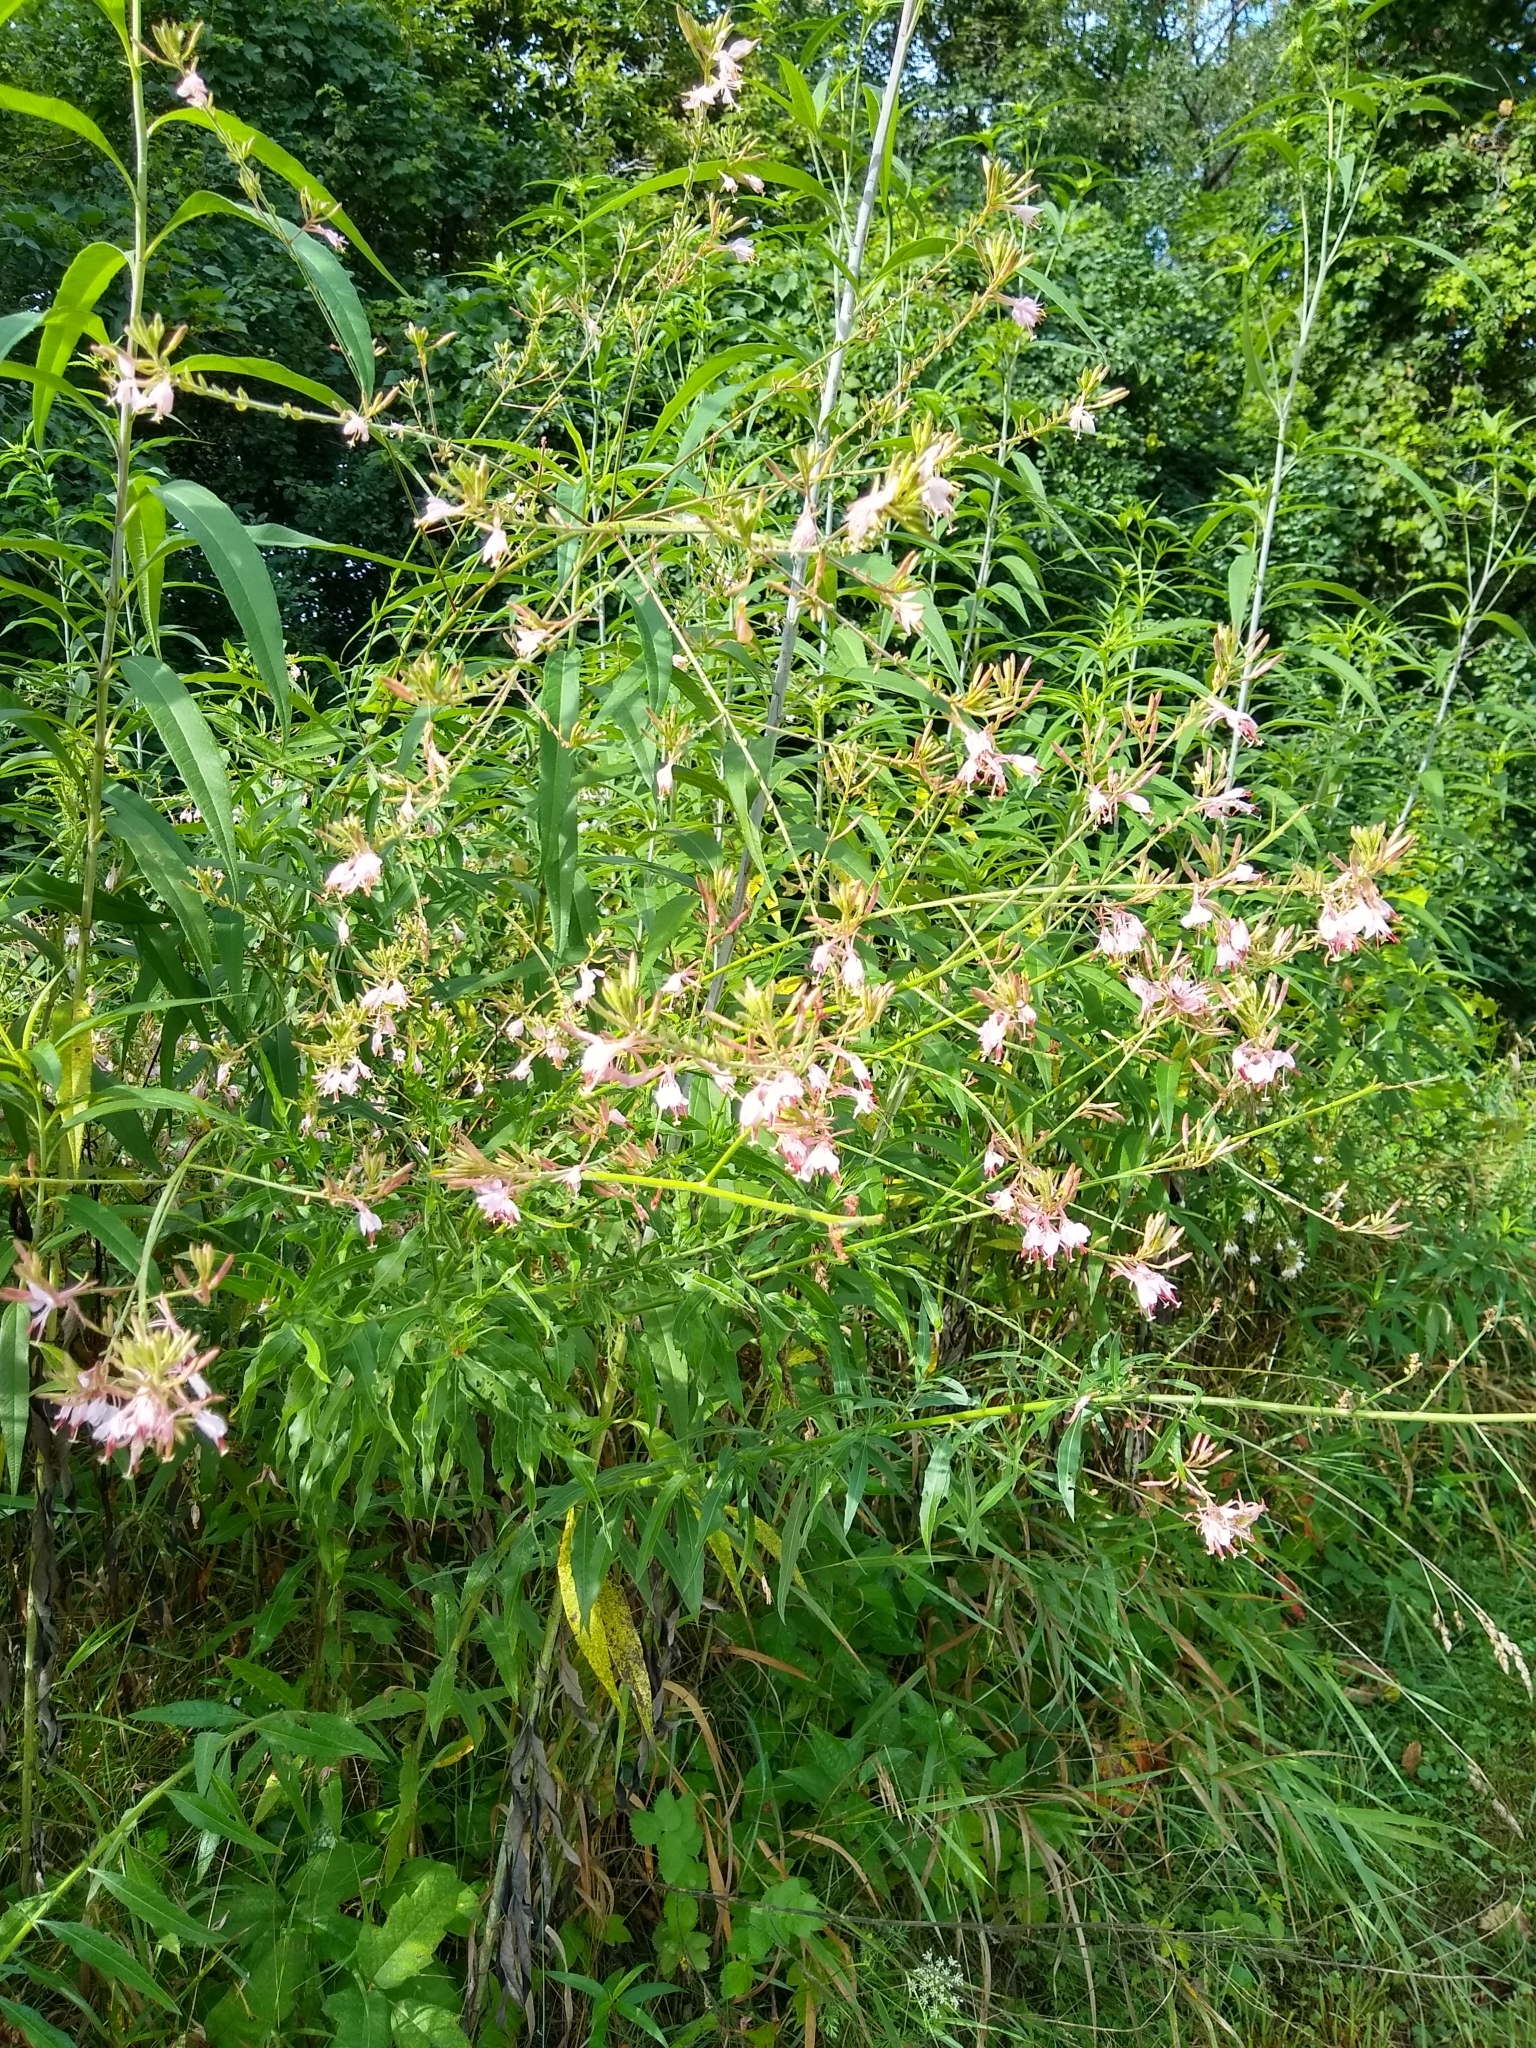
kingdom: Plantae
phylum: Tracheophyta
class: Magnoliopsida
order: Myrtales
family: Onagraceae
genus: Oenothera
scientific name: Oenothera gaura
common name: Biennial beeblossom
